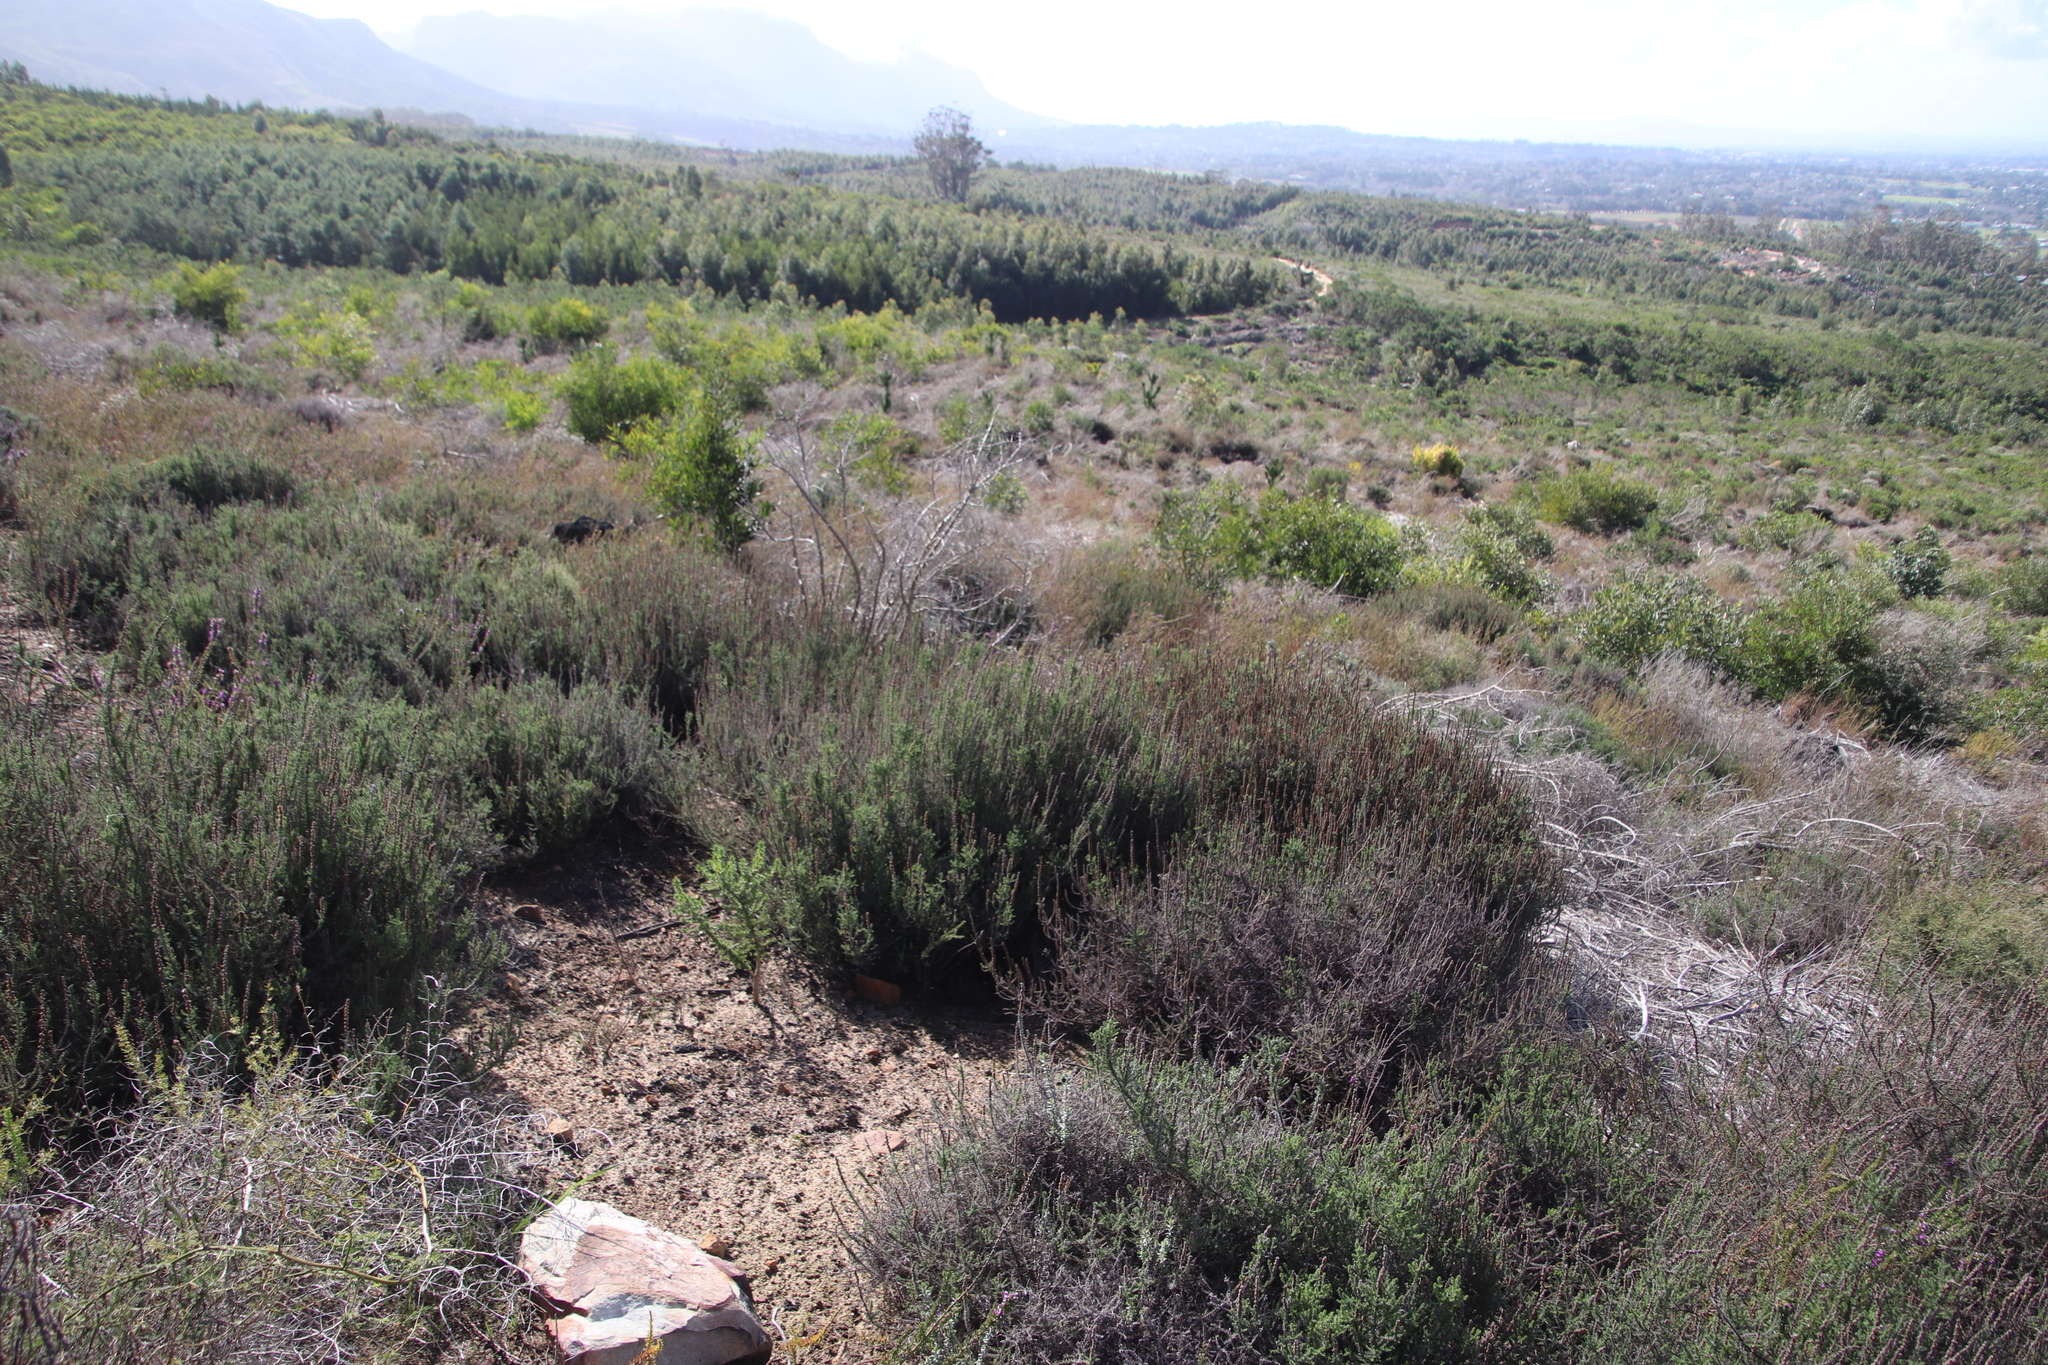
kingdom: Plantae
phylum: Tracheophyta
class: Magnoliopsida
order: Asterales
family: Asteraceae
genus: Seriphium
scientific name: Seriphium cinereum
